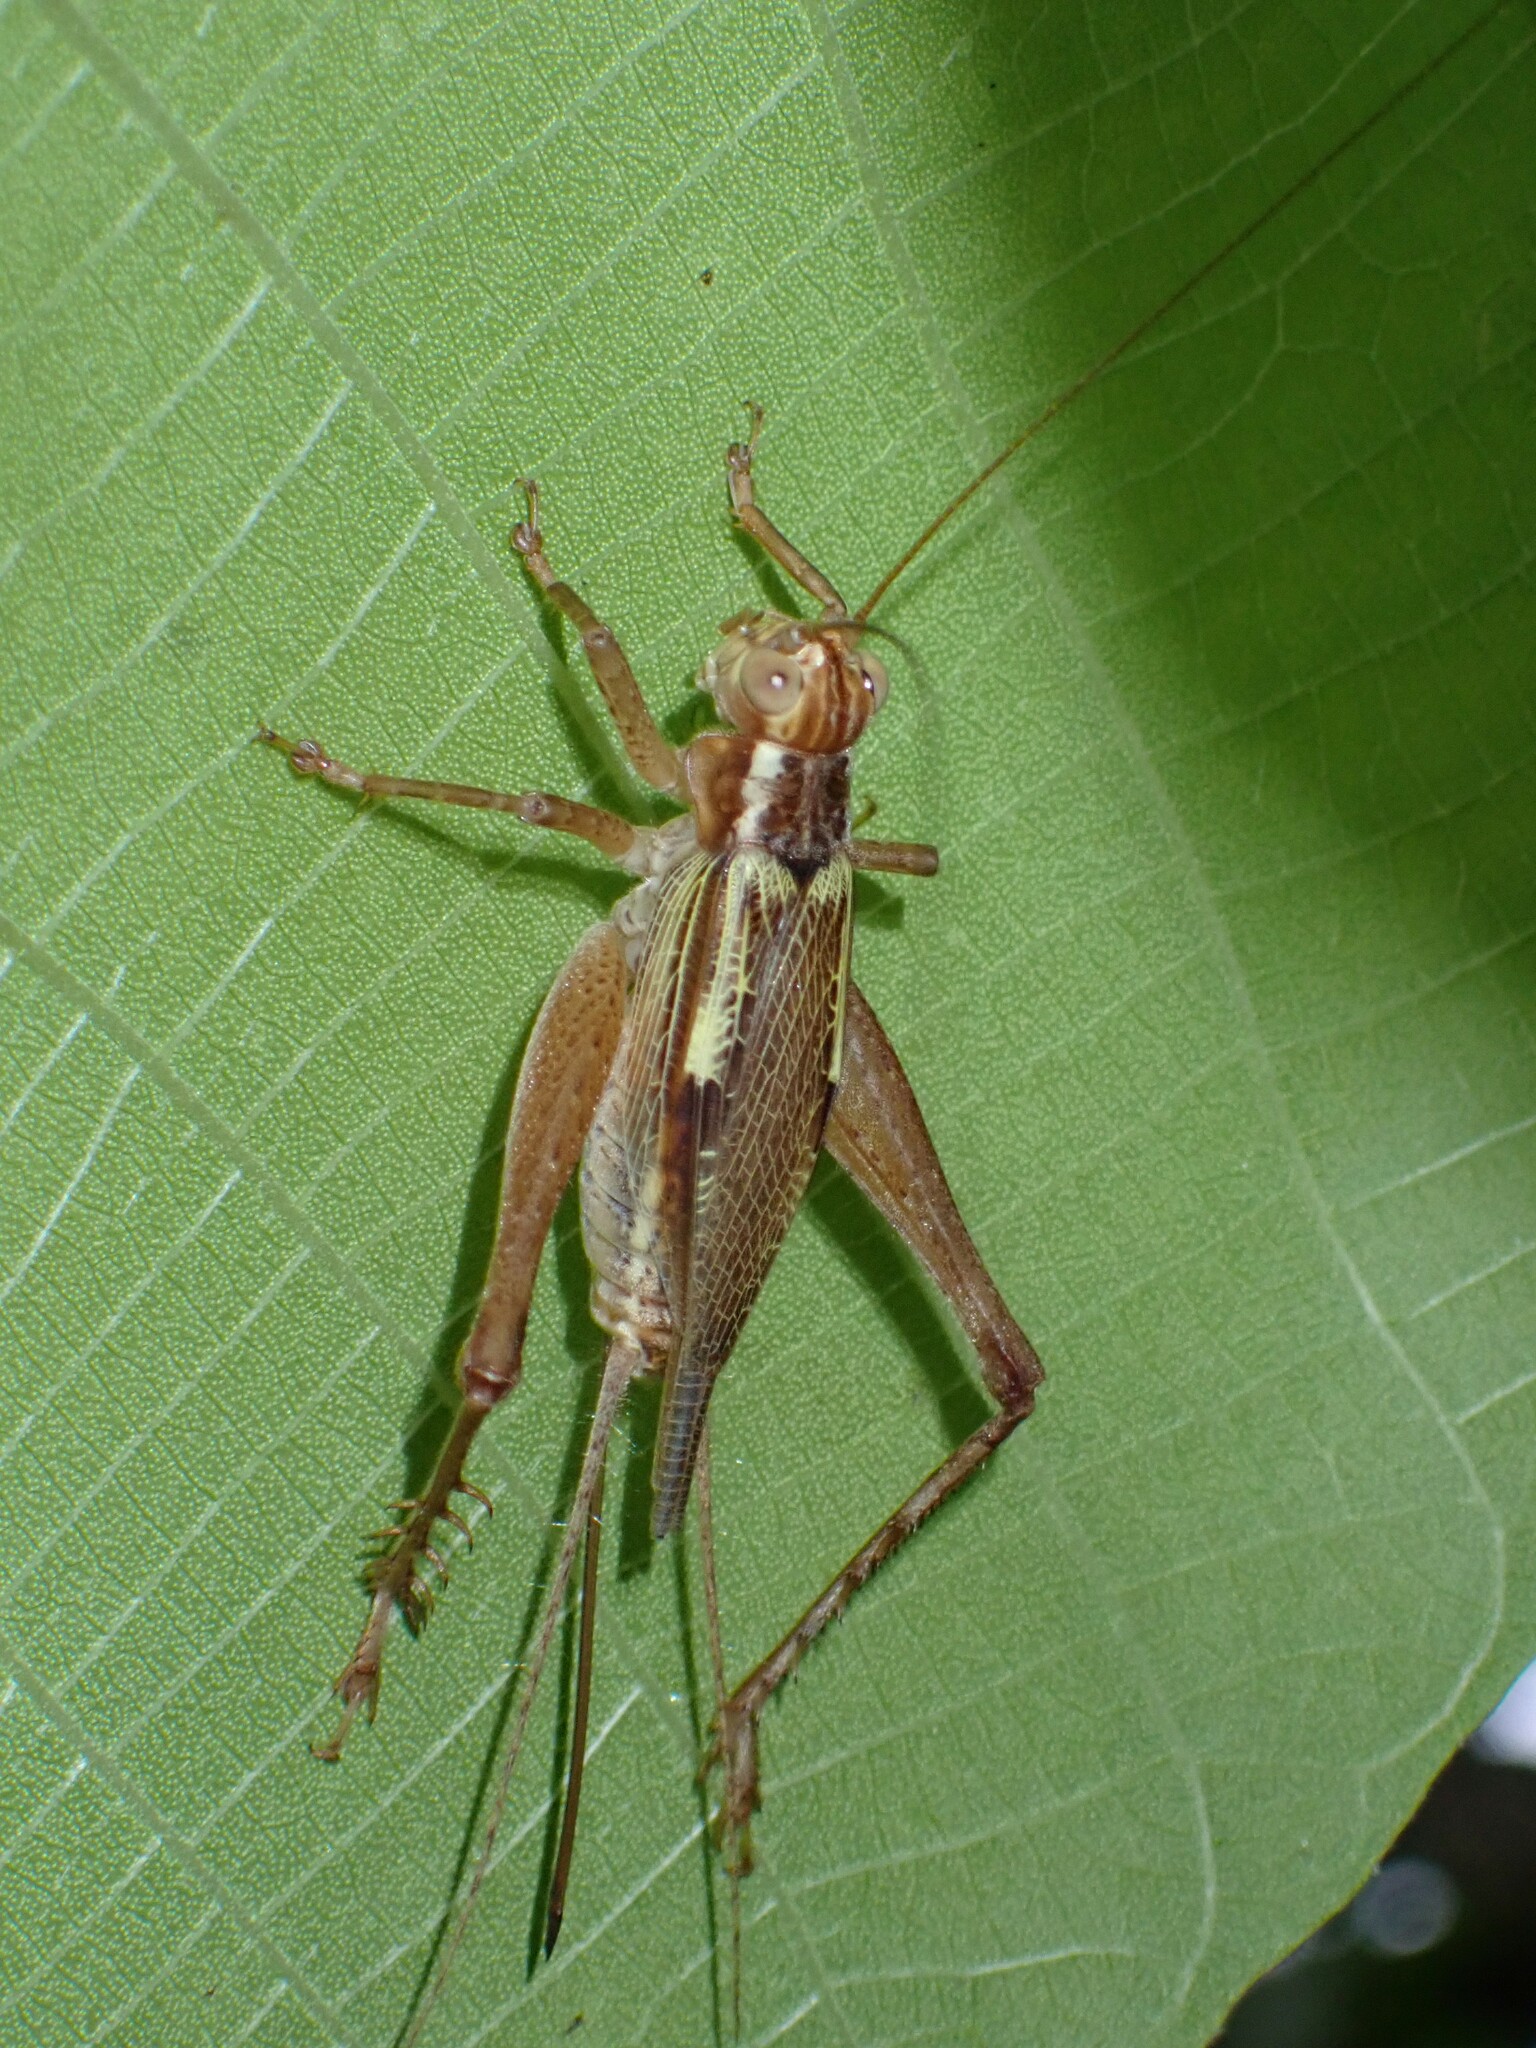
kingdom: Animalia
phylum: Arthropoda
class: Insecta
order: Orthoptera
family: Gryllidae
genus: Cardiodactylus
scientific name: Cardiodactylus novaeguineae
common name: Sad cricket
